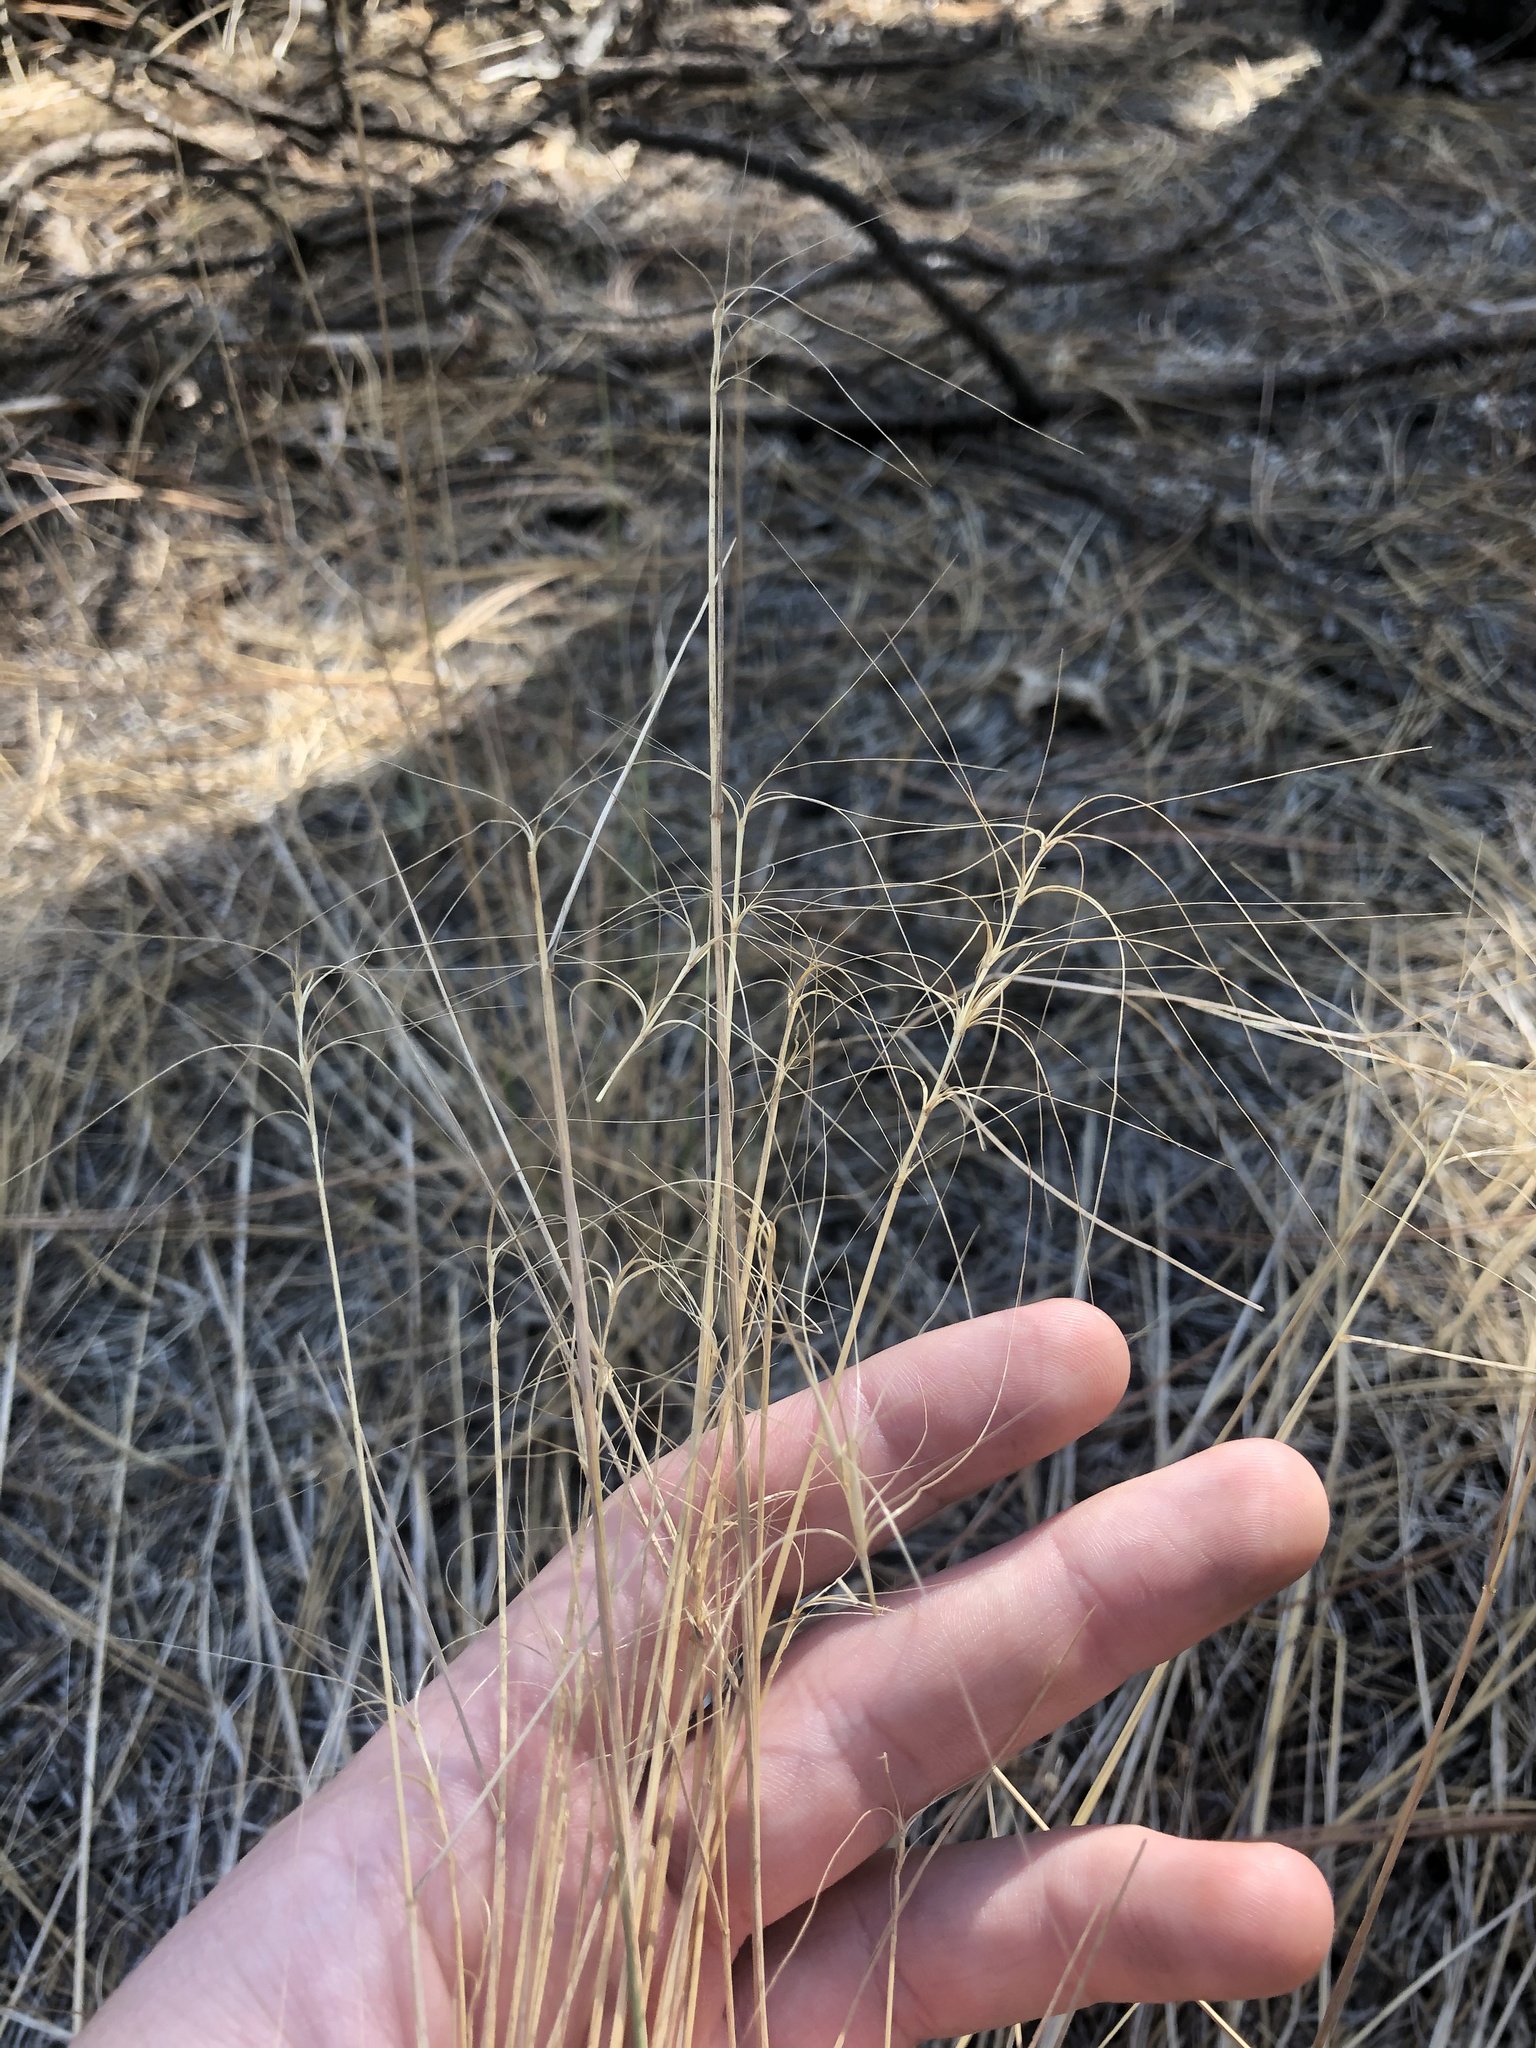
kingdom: Plantae
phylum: Tracheophyta
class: Liliopsida
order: Poales
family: Poaceae
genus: Elymus
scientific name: Elymus elymoides
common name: Bottlebrush squirreltail
